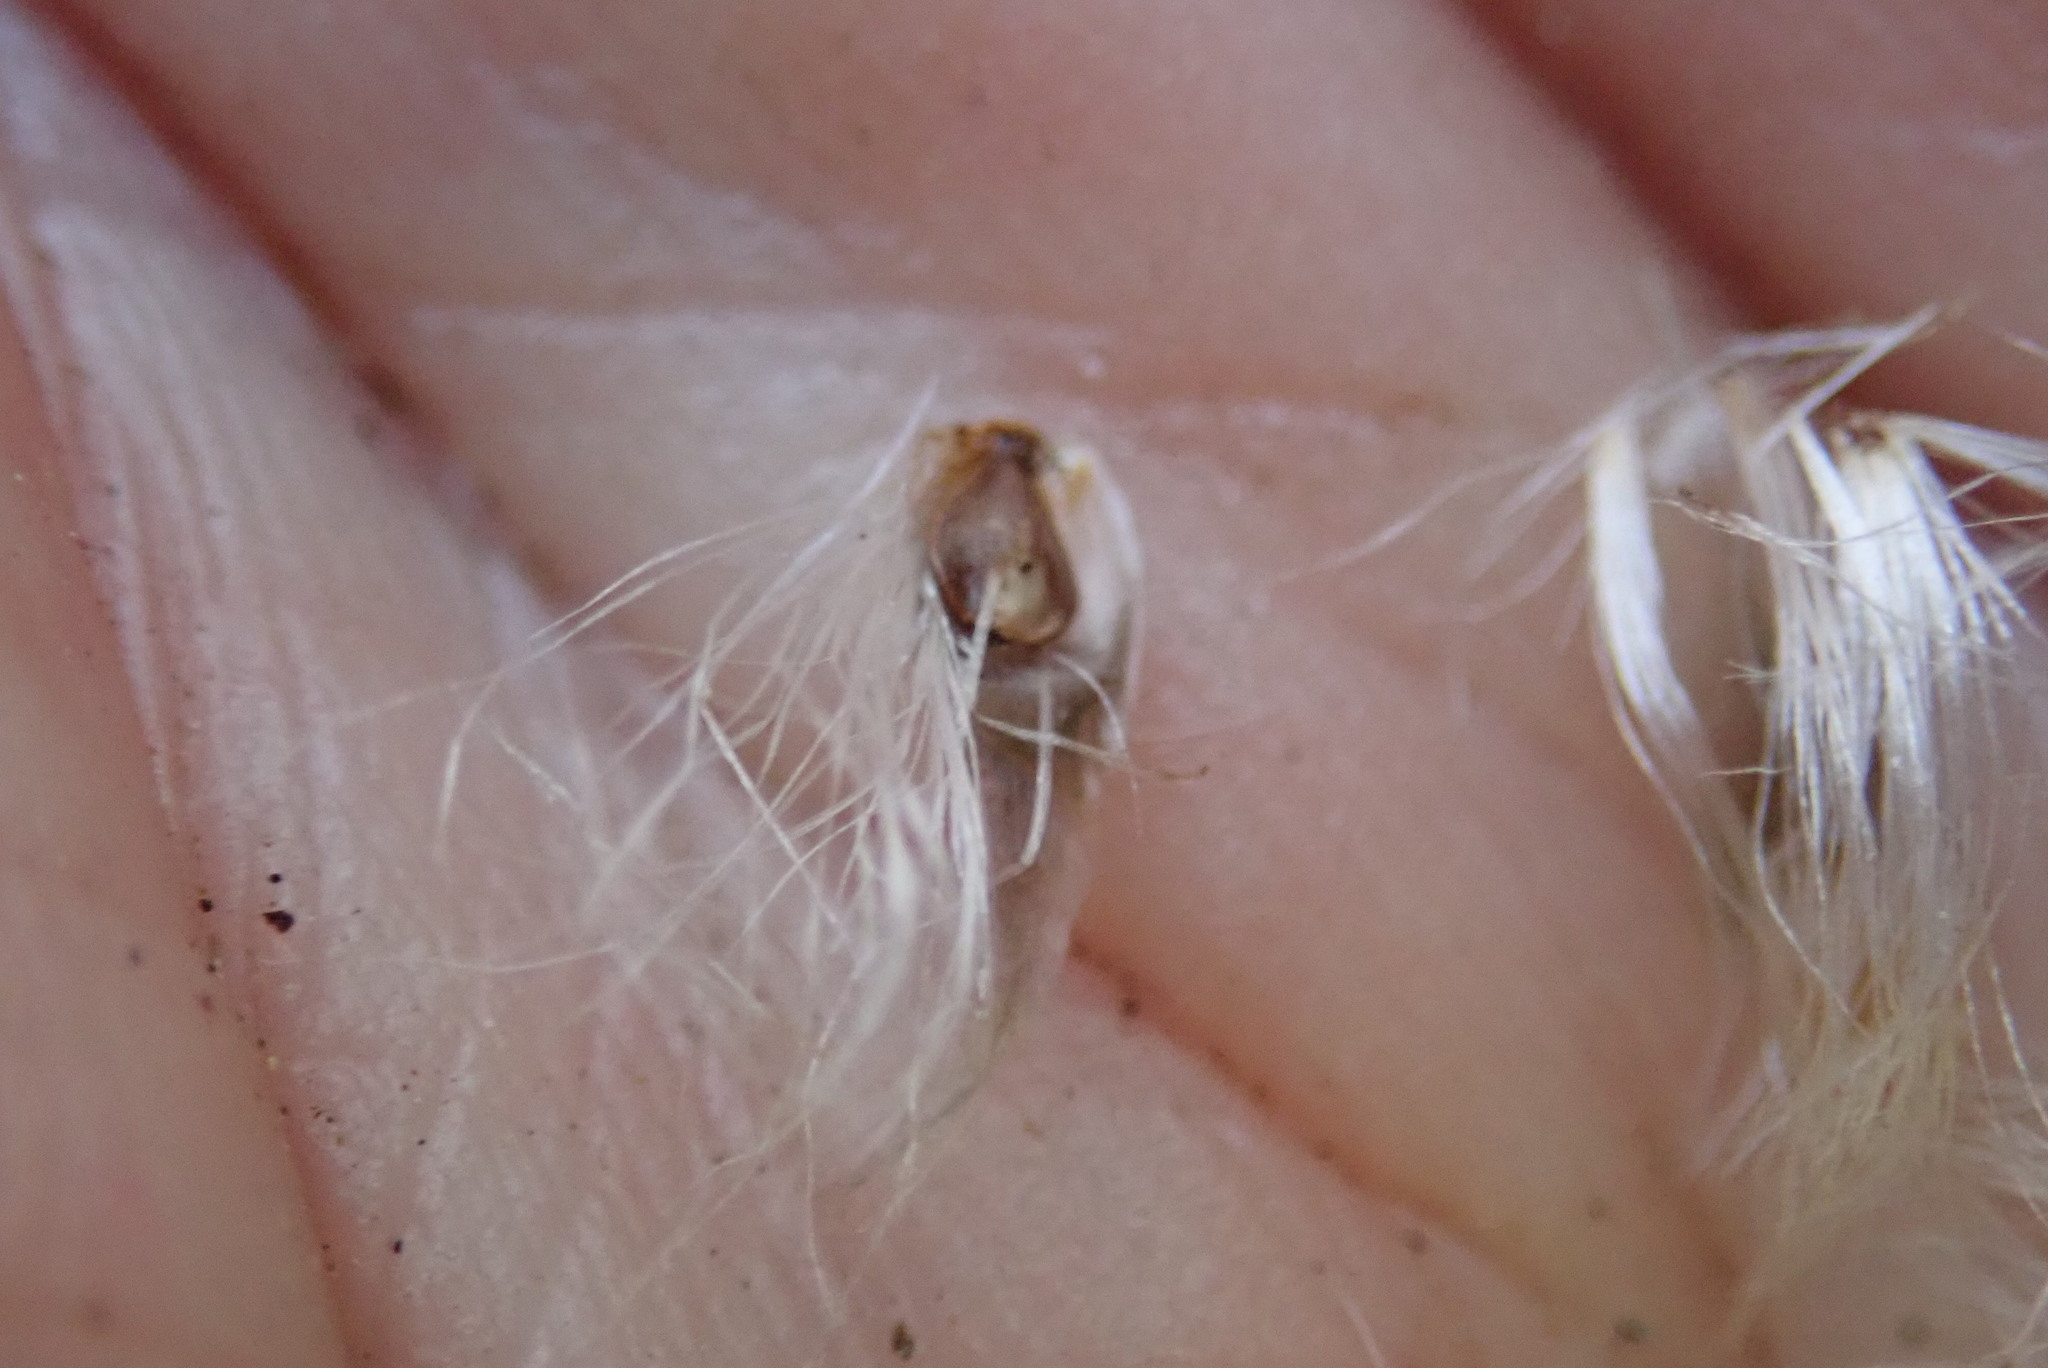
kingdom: Plantae
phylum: Tracheophyta
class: Liliopsida
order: Poales
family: Cyperaceae
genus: Eriophorum
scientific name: Eriophorum vaginatum
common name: Hare's-tail cottongrass
